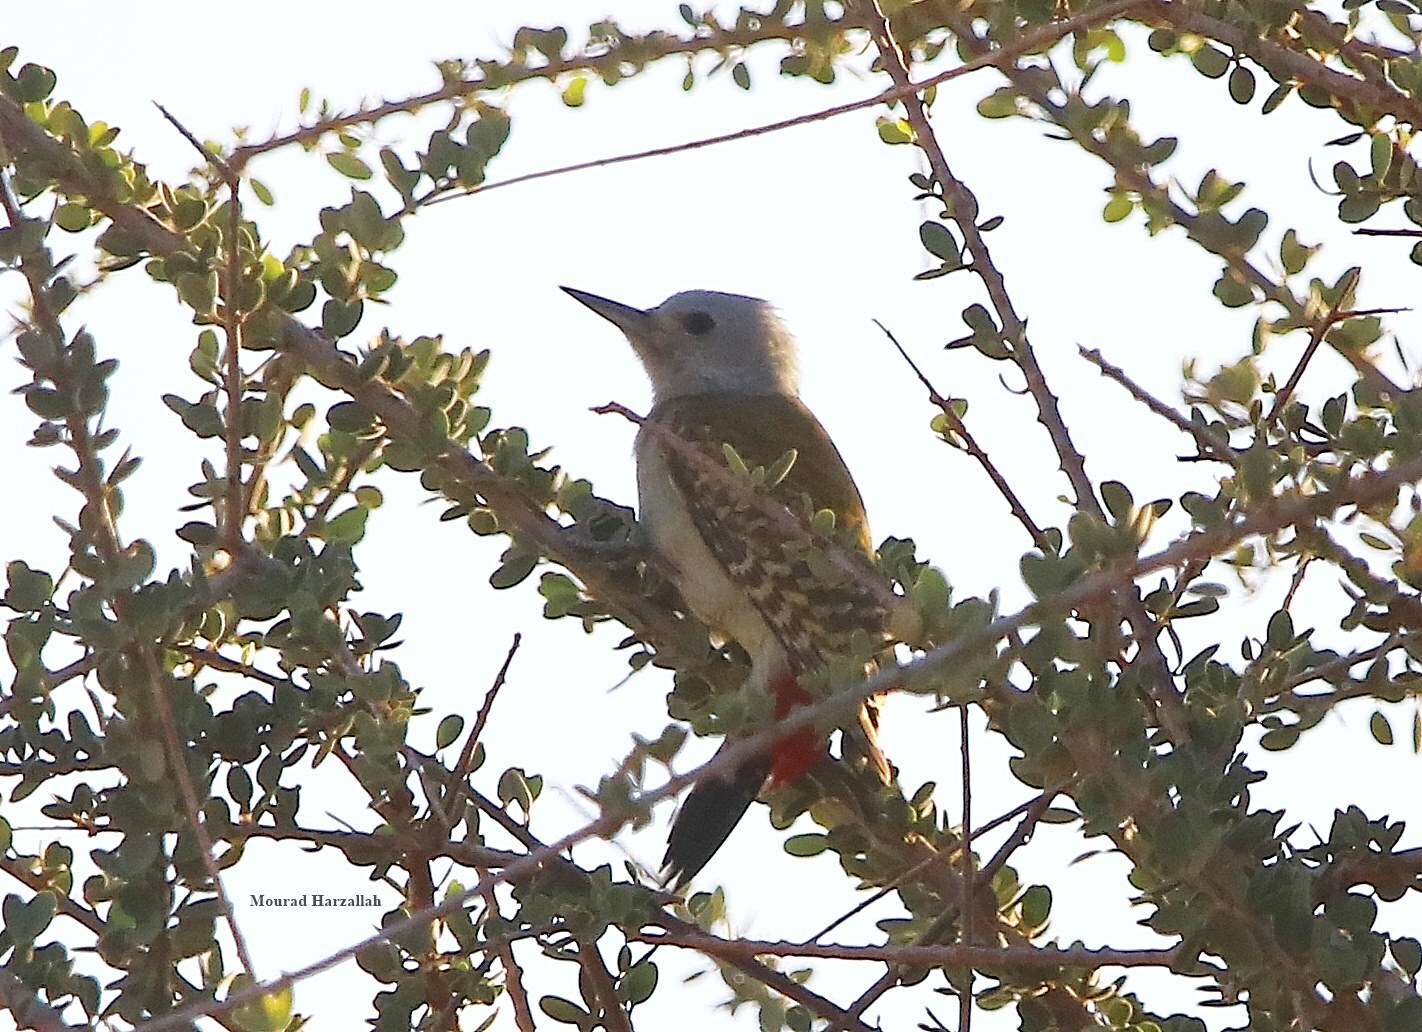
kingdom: Animalia
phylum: Chordata
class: Aves
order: Piciformes
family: Picidae
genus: Dendropicos
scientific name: Dendropicos goertae
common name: African grey woodpecker
